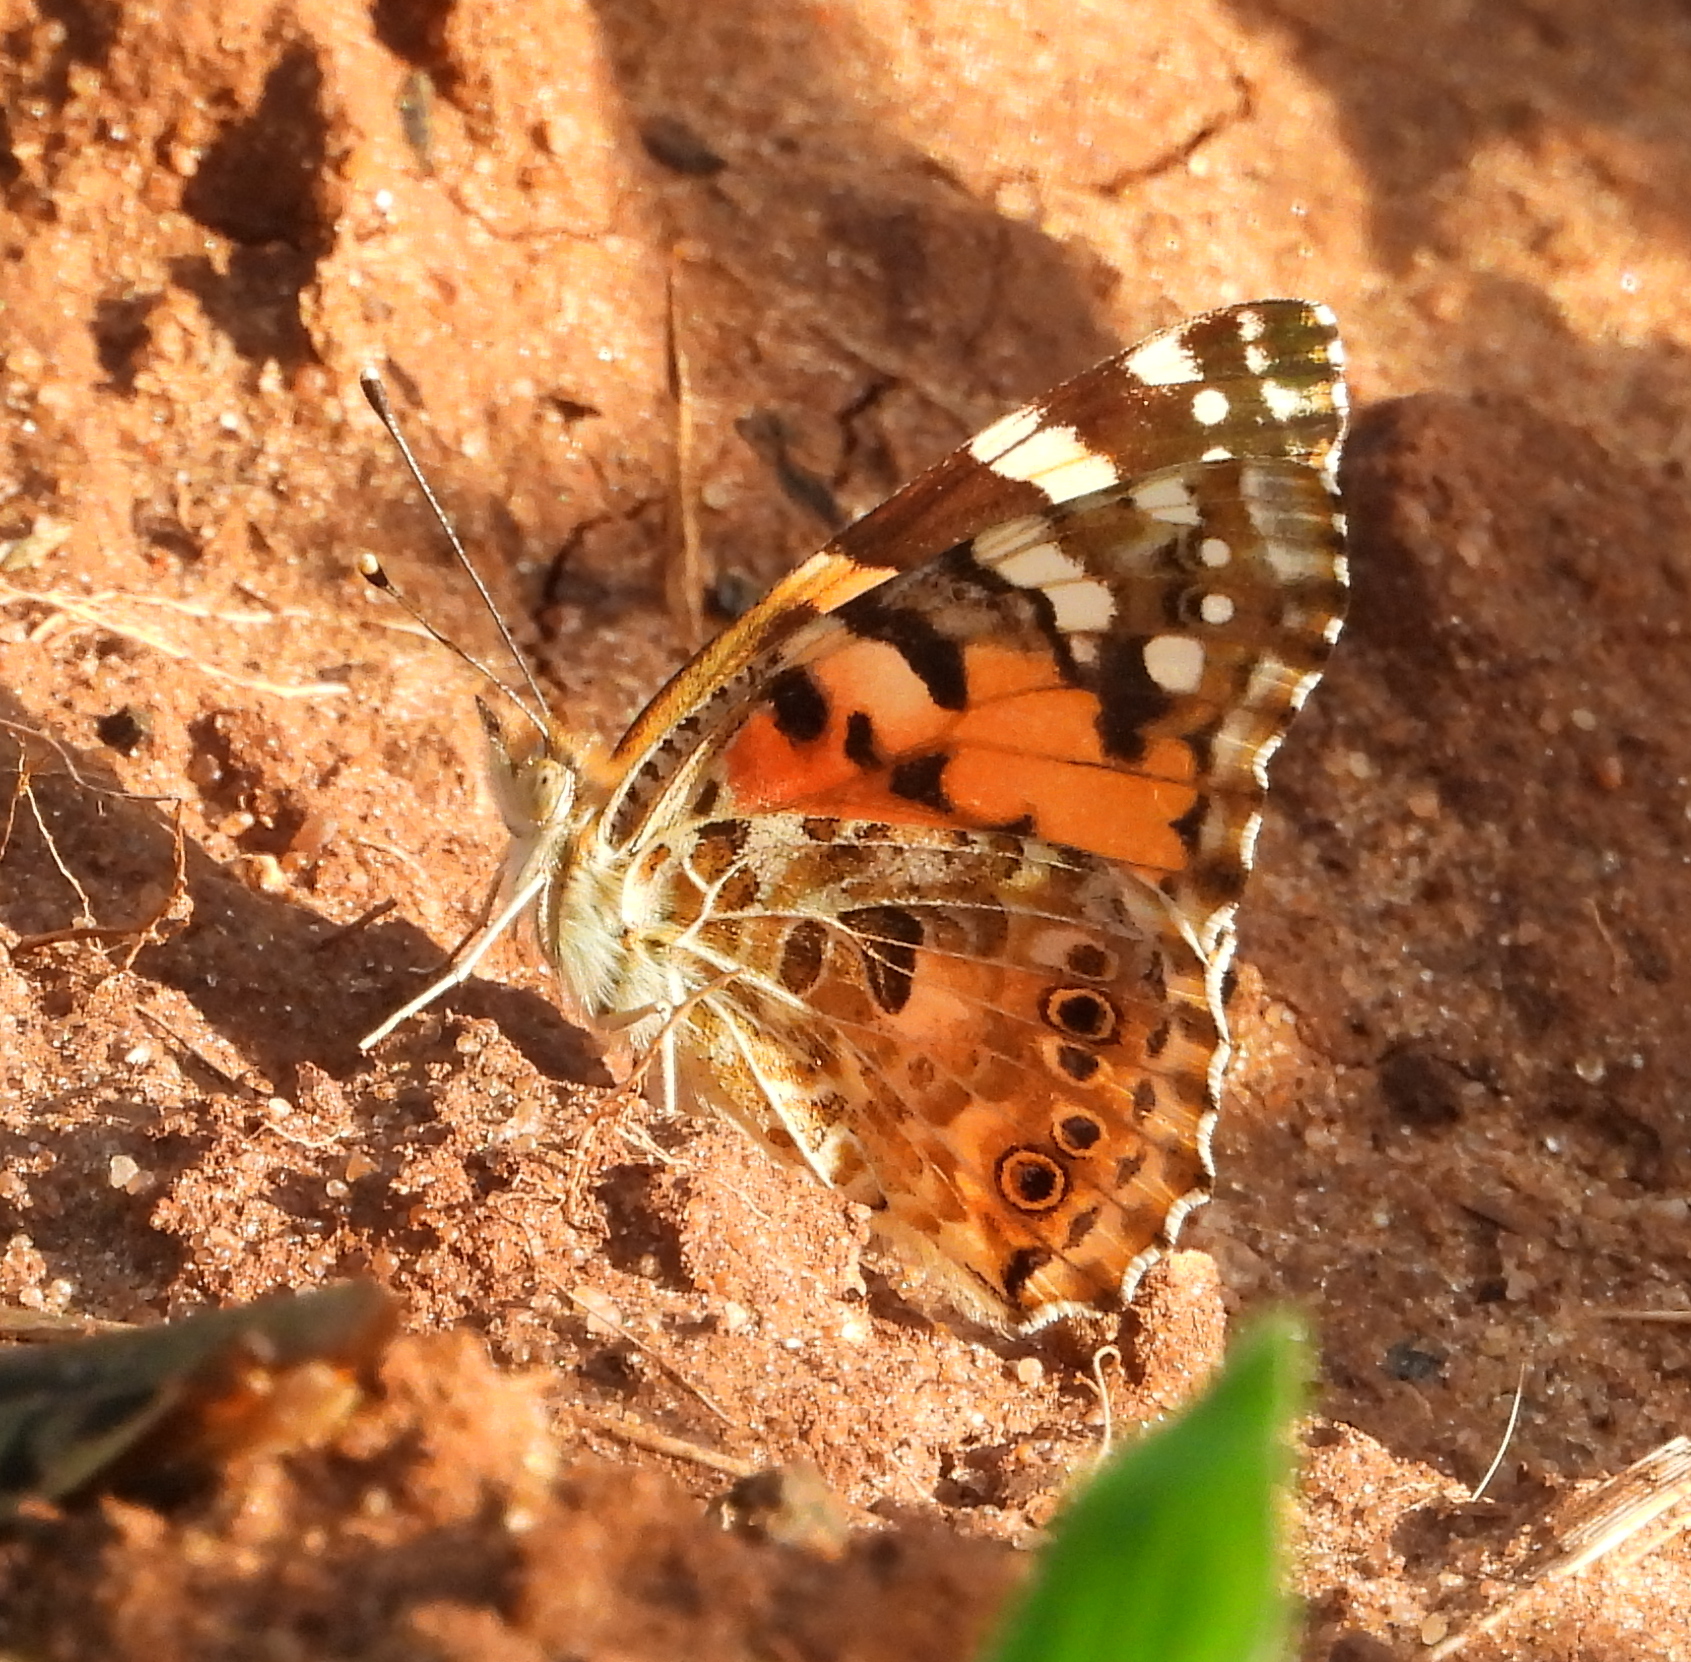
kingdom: Animalia
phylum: Arthropoda
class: Insecta
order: Lepidoptera
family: Nymphalidae
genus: Vanessa
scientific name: Vanessa cardui
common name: Painted lady
